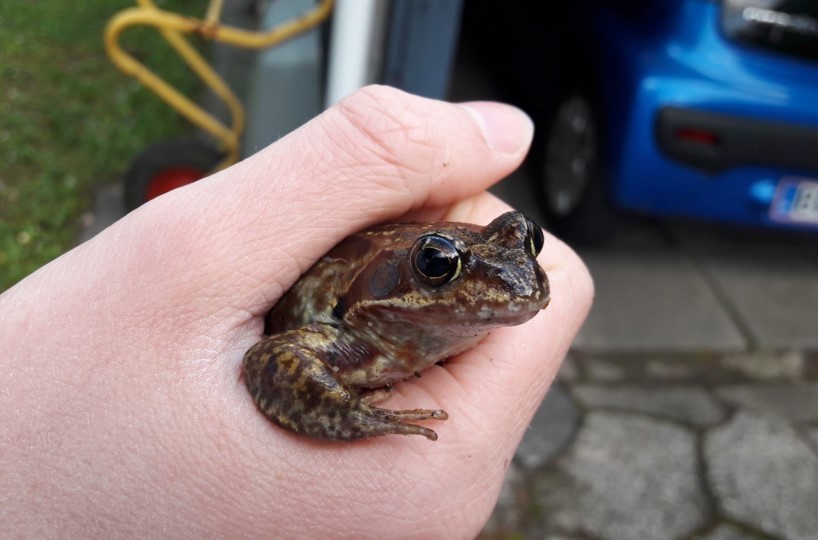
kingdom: Animalia
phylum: Chordata
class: Amphibia
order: Anura
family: Ranidae
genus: Rana
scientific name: Rana temporaria
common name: Common frog
